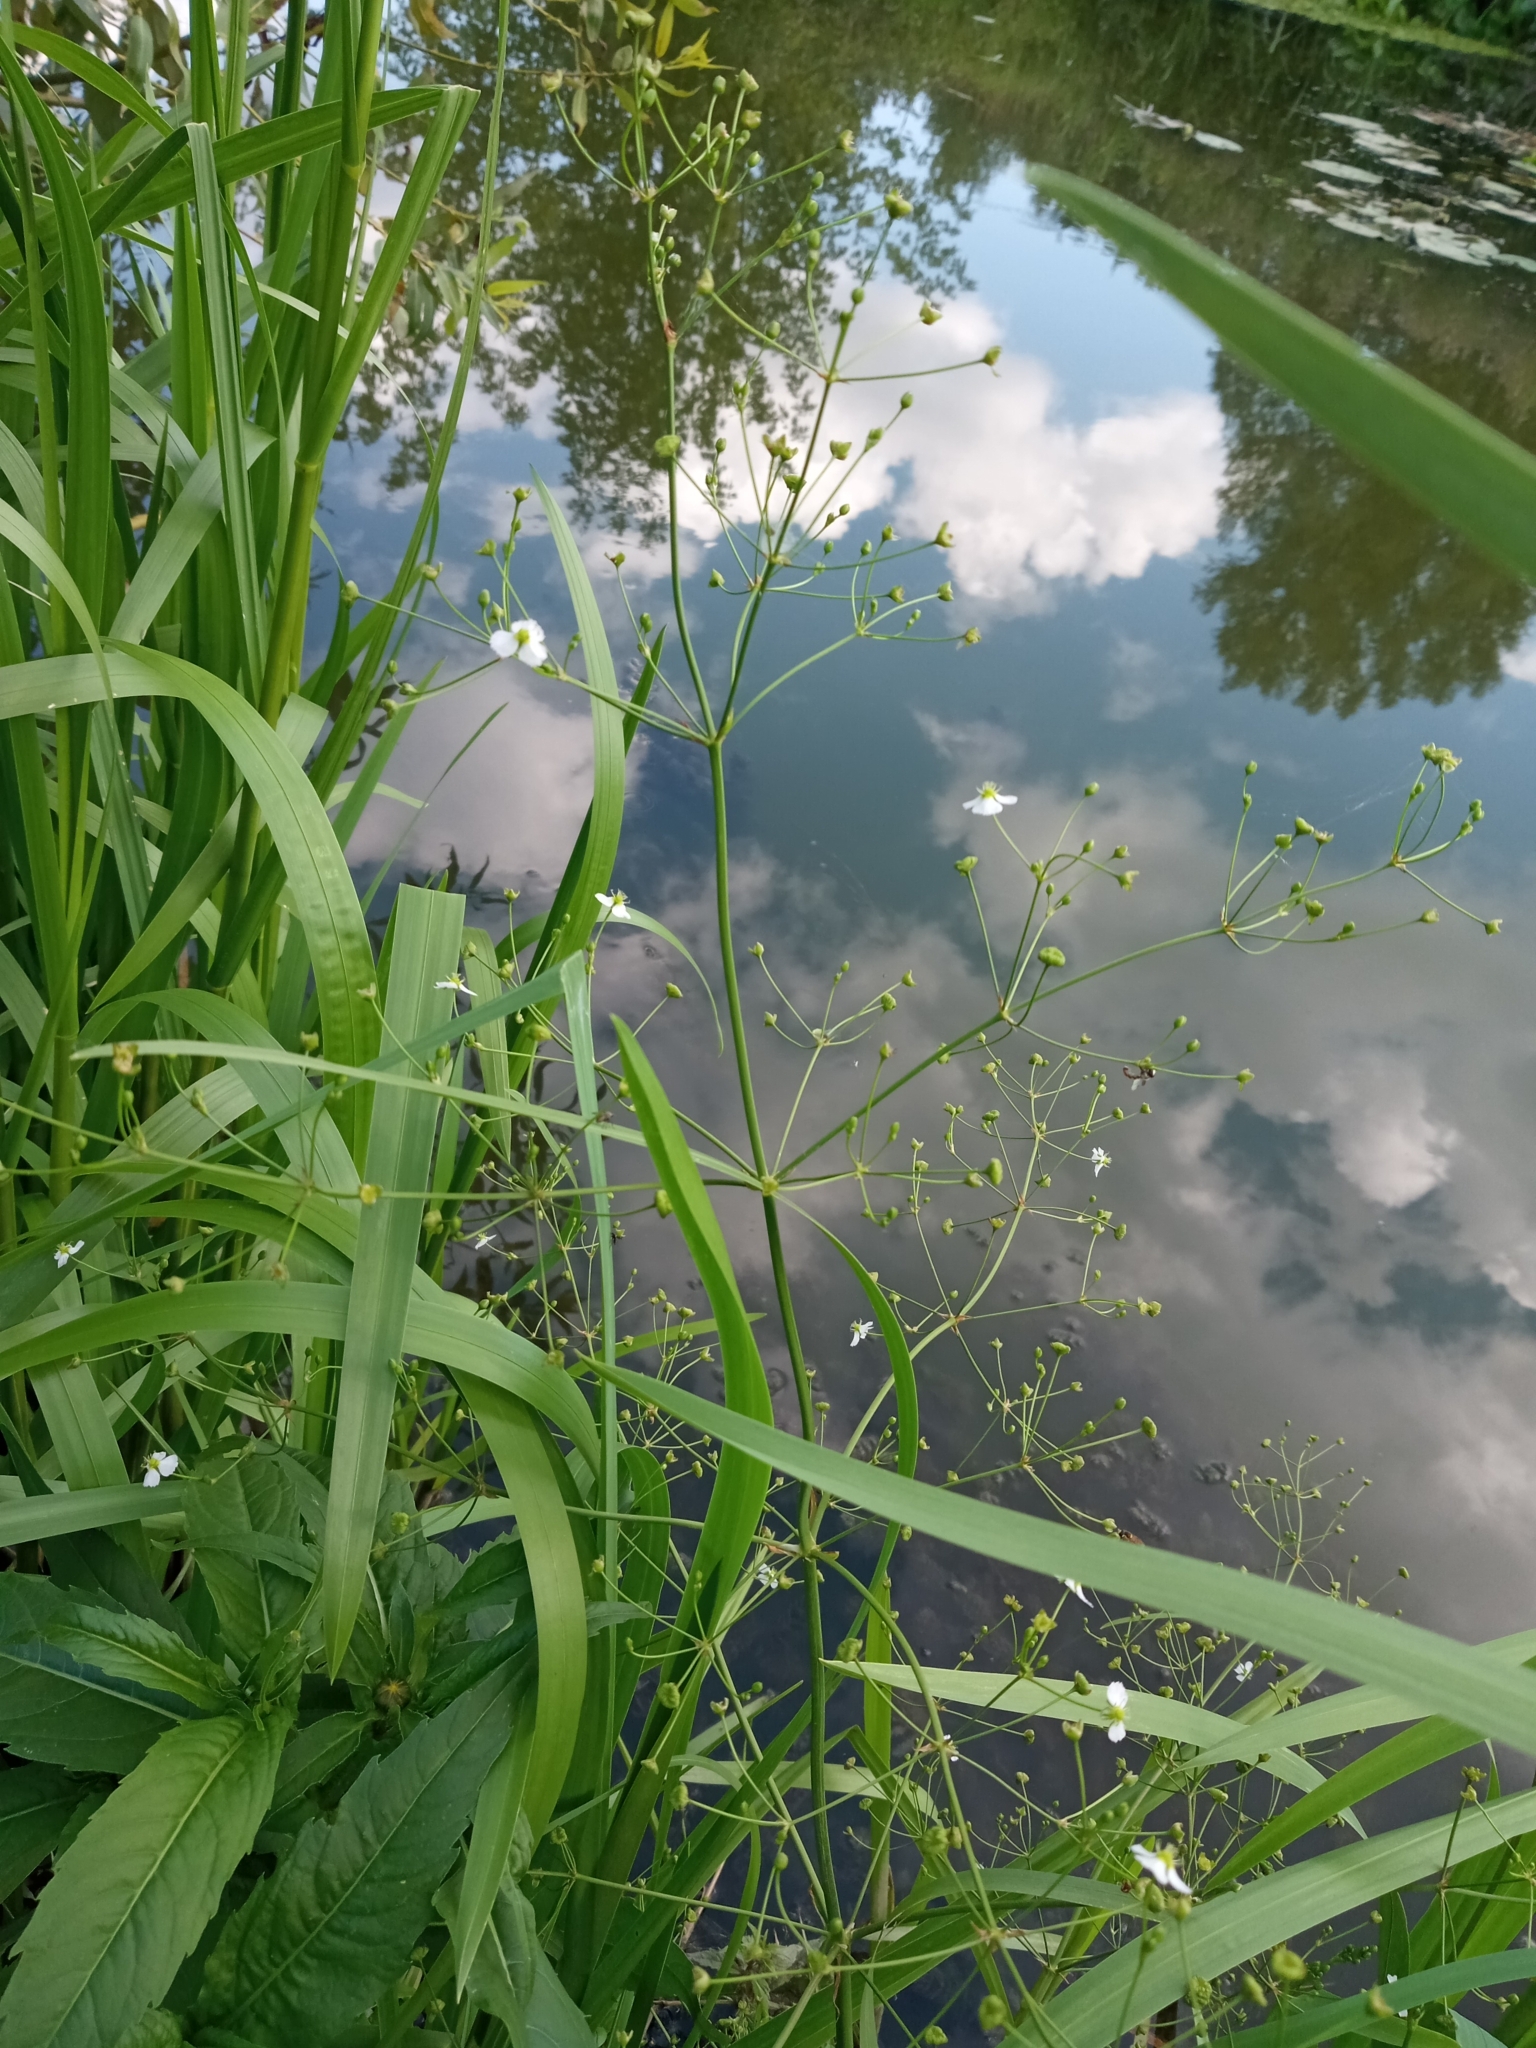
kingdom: Plantae
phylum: Tracheophyta
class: Liliopsida
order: Alismatales
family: Alismataceae
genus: Alisma
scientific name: Alisma plantago-aquatica
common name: Water-plantain
